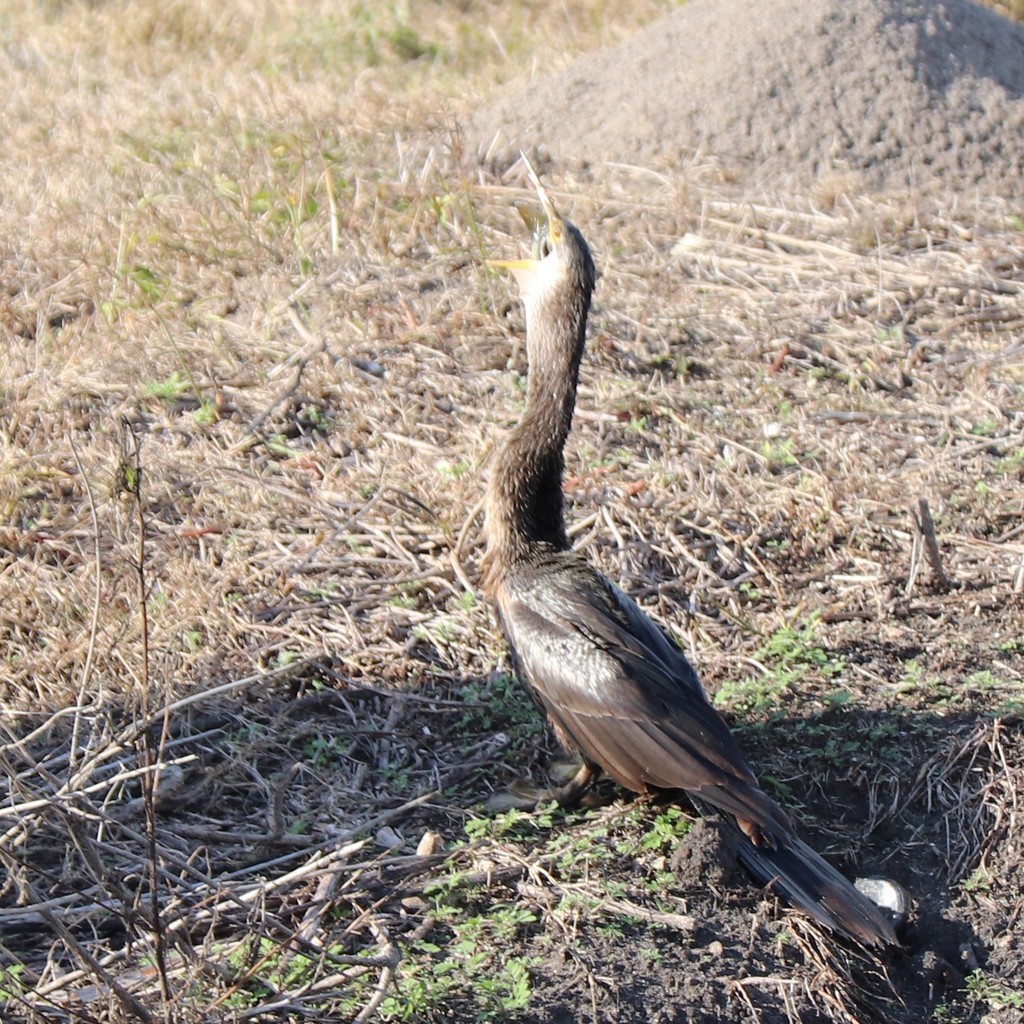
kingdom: Animalia
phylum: Chordata
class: Aves
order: Suliformes
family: Anhingidae
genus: Anhinga
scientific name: Anhinga anhinga
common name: Anhinga
